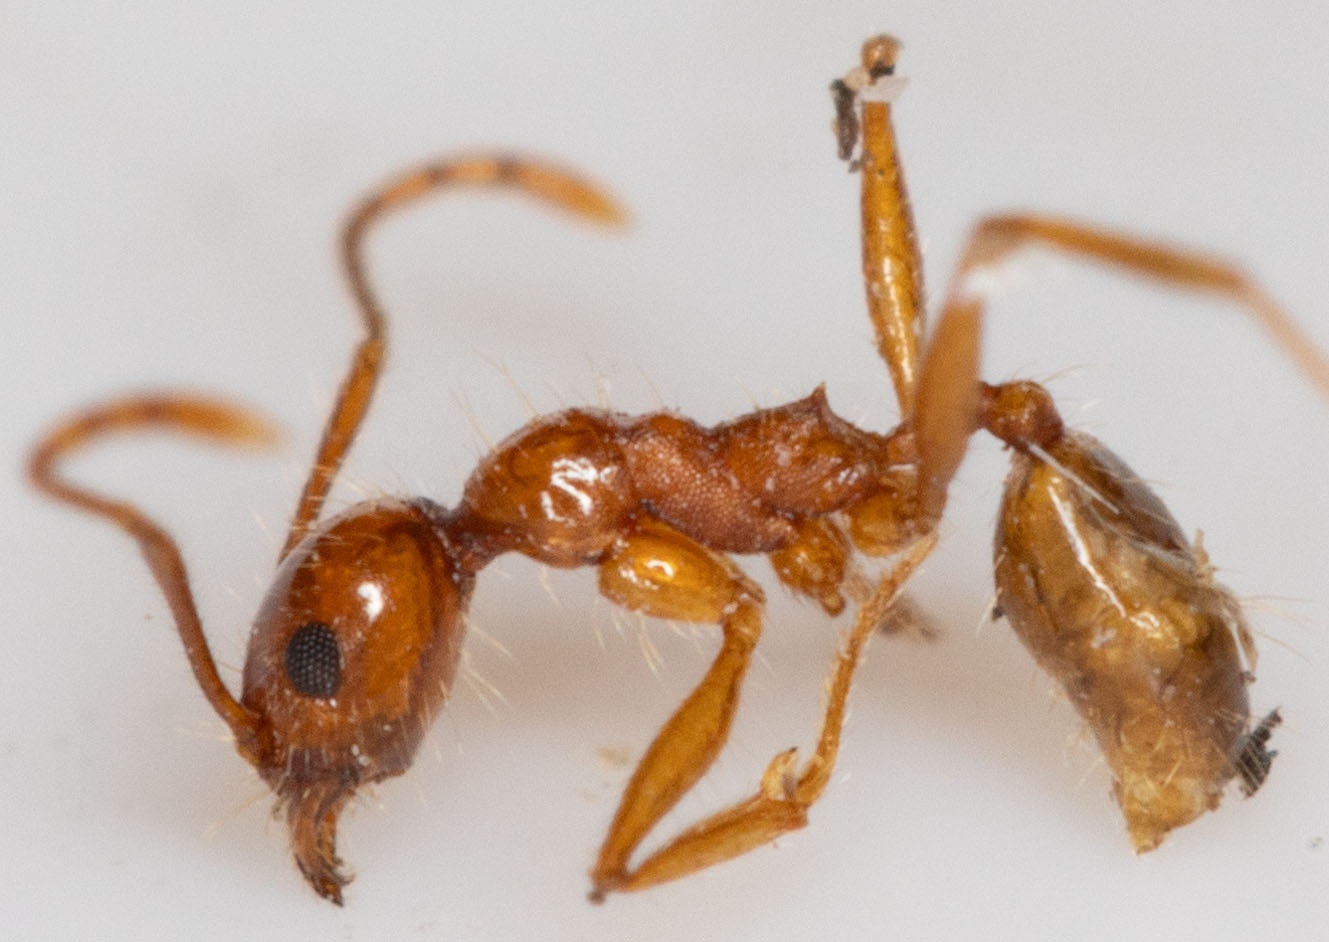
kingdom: Animalia
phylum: Arthropoda
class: Insecta
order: Hymenoptera
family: Formicidae
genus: Pheidole
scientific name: Pheidole hyatti
